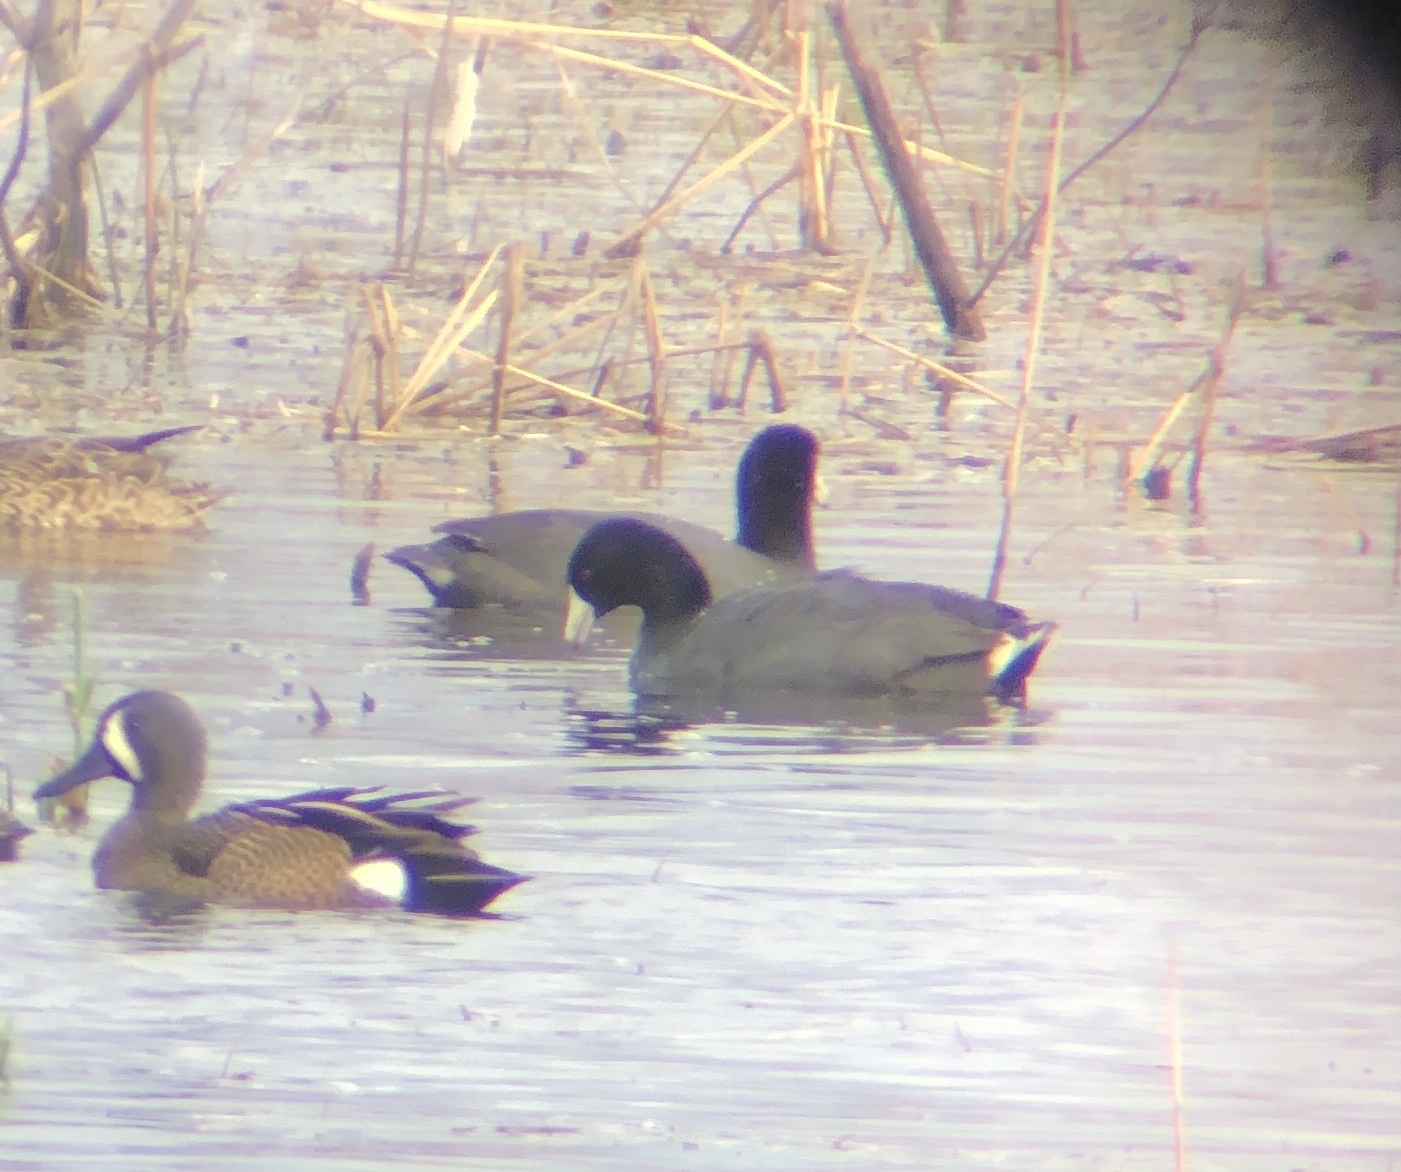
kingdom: Animalia
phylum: Chordata
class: Aves
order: Gruiformes
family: Rallidae
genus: Fulica
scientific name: Fulica americana
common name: American coot
